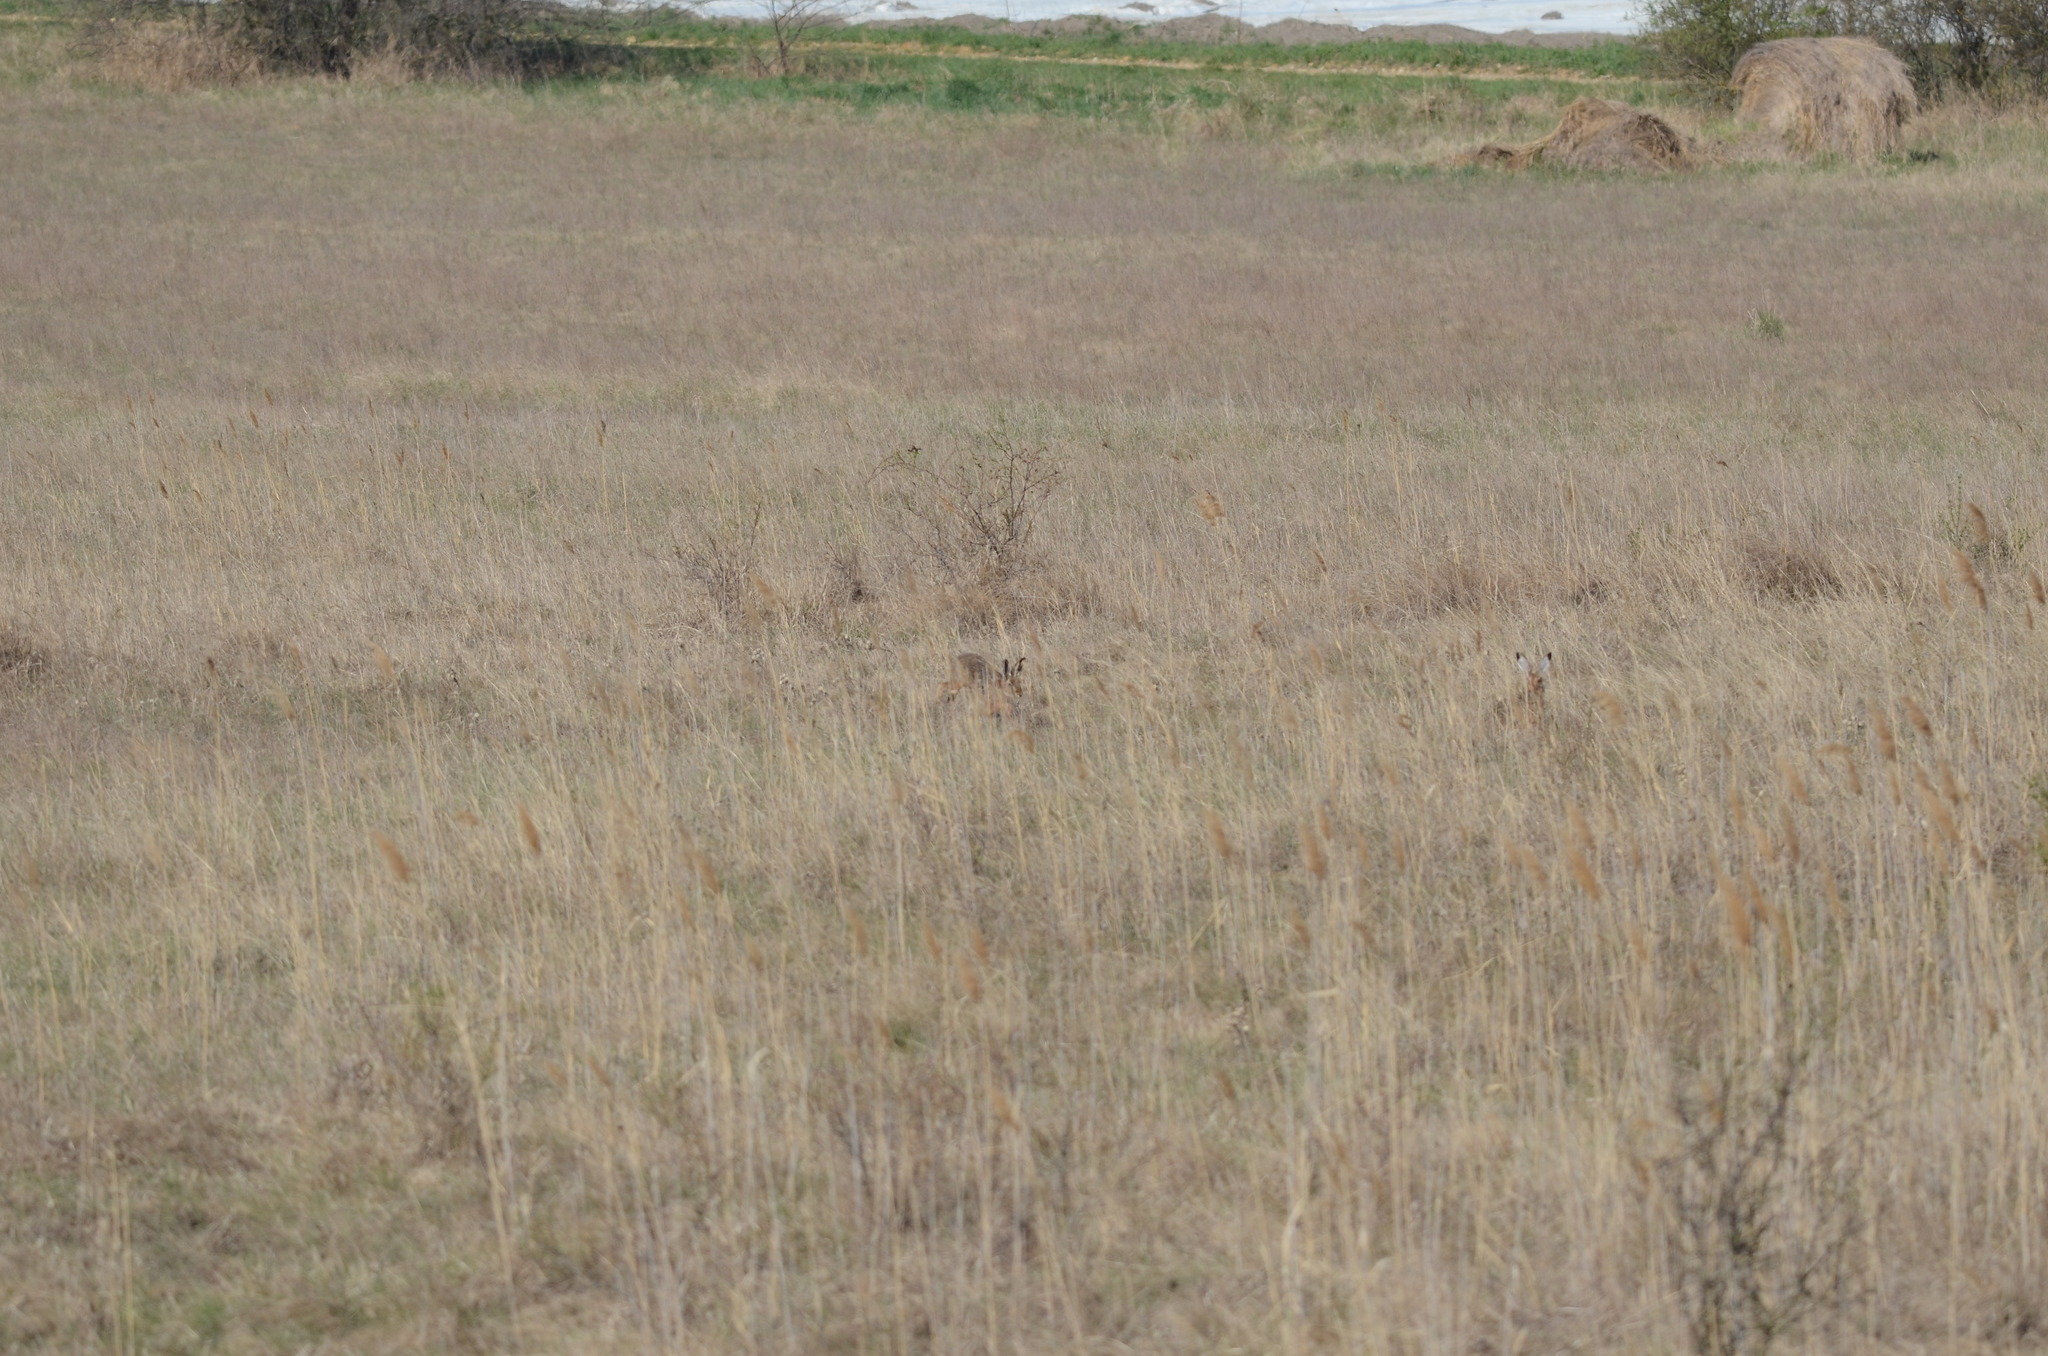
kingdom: Animalia
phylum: Chordata
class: Mammalia
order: Lagomorpha
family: Leporidae
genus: Lepus
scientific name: Lepus europaeus
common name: European hare
